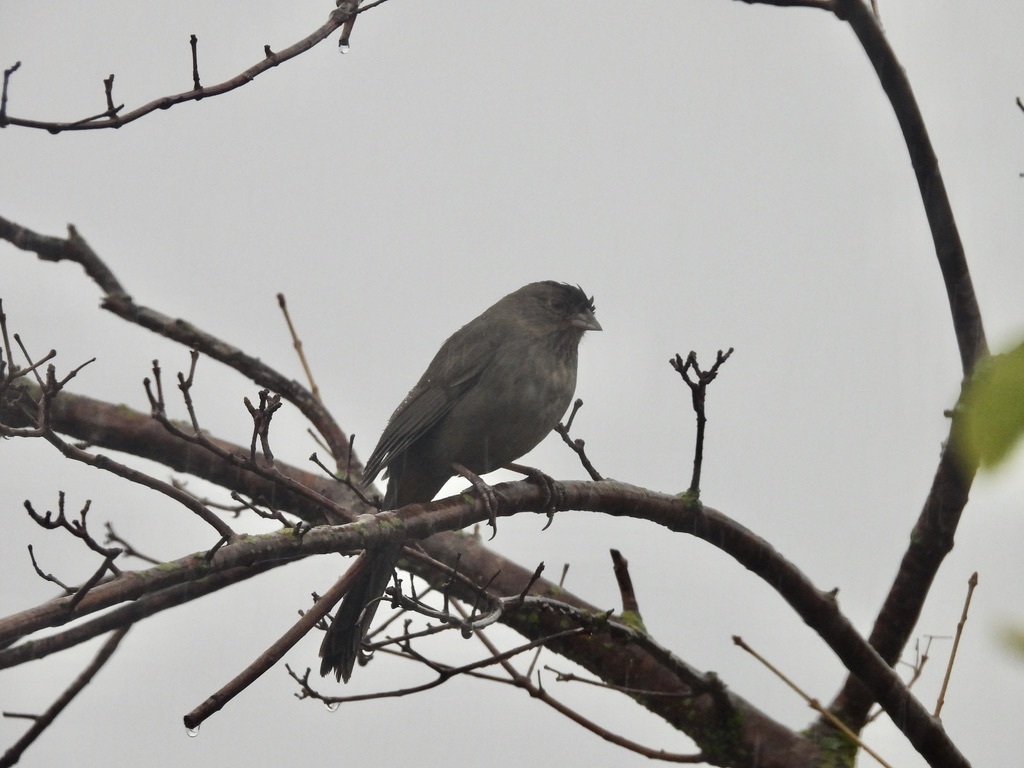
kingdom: Animalia
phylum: Chordata
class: Aves
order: Passeriformes
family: Passerellidae
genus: Melozone
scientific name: Melozone crissalis
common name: California towhee
